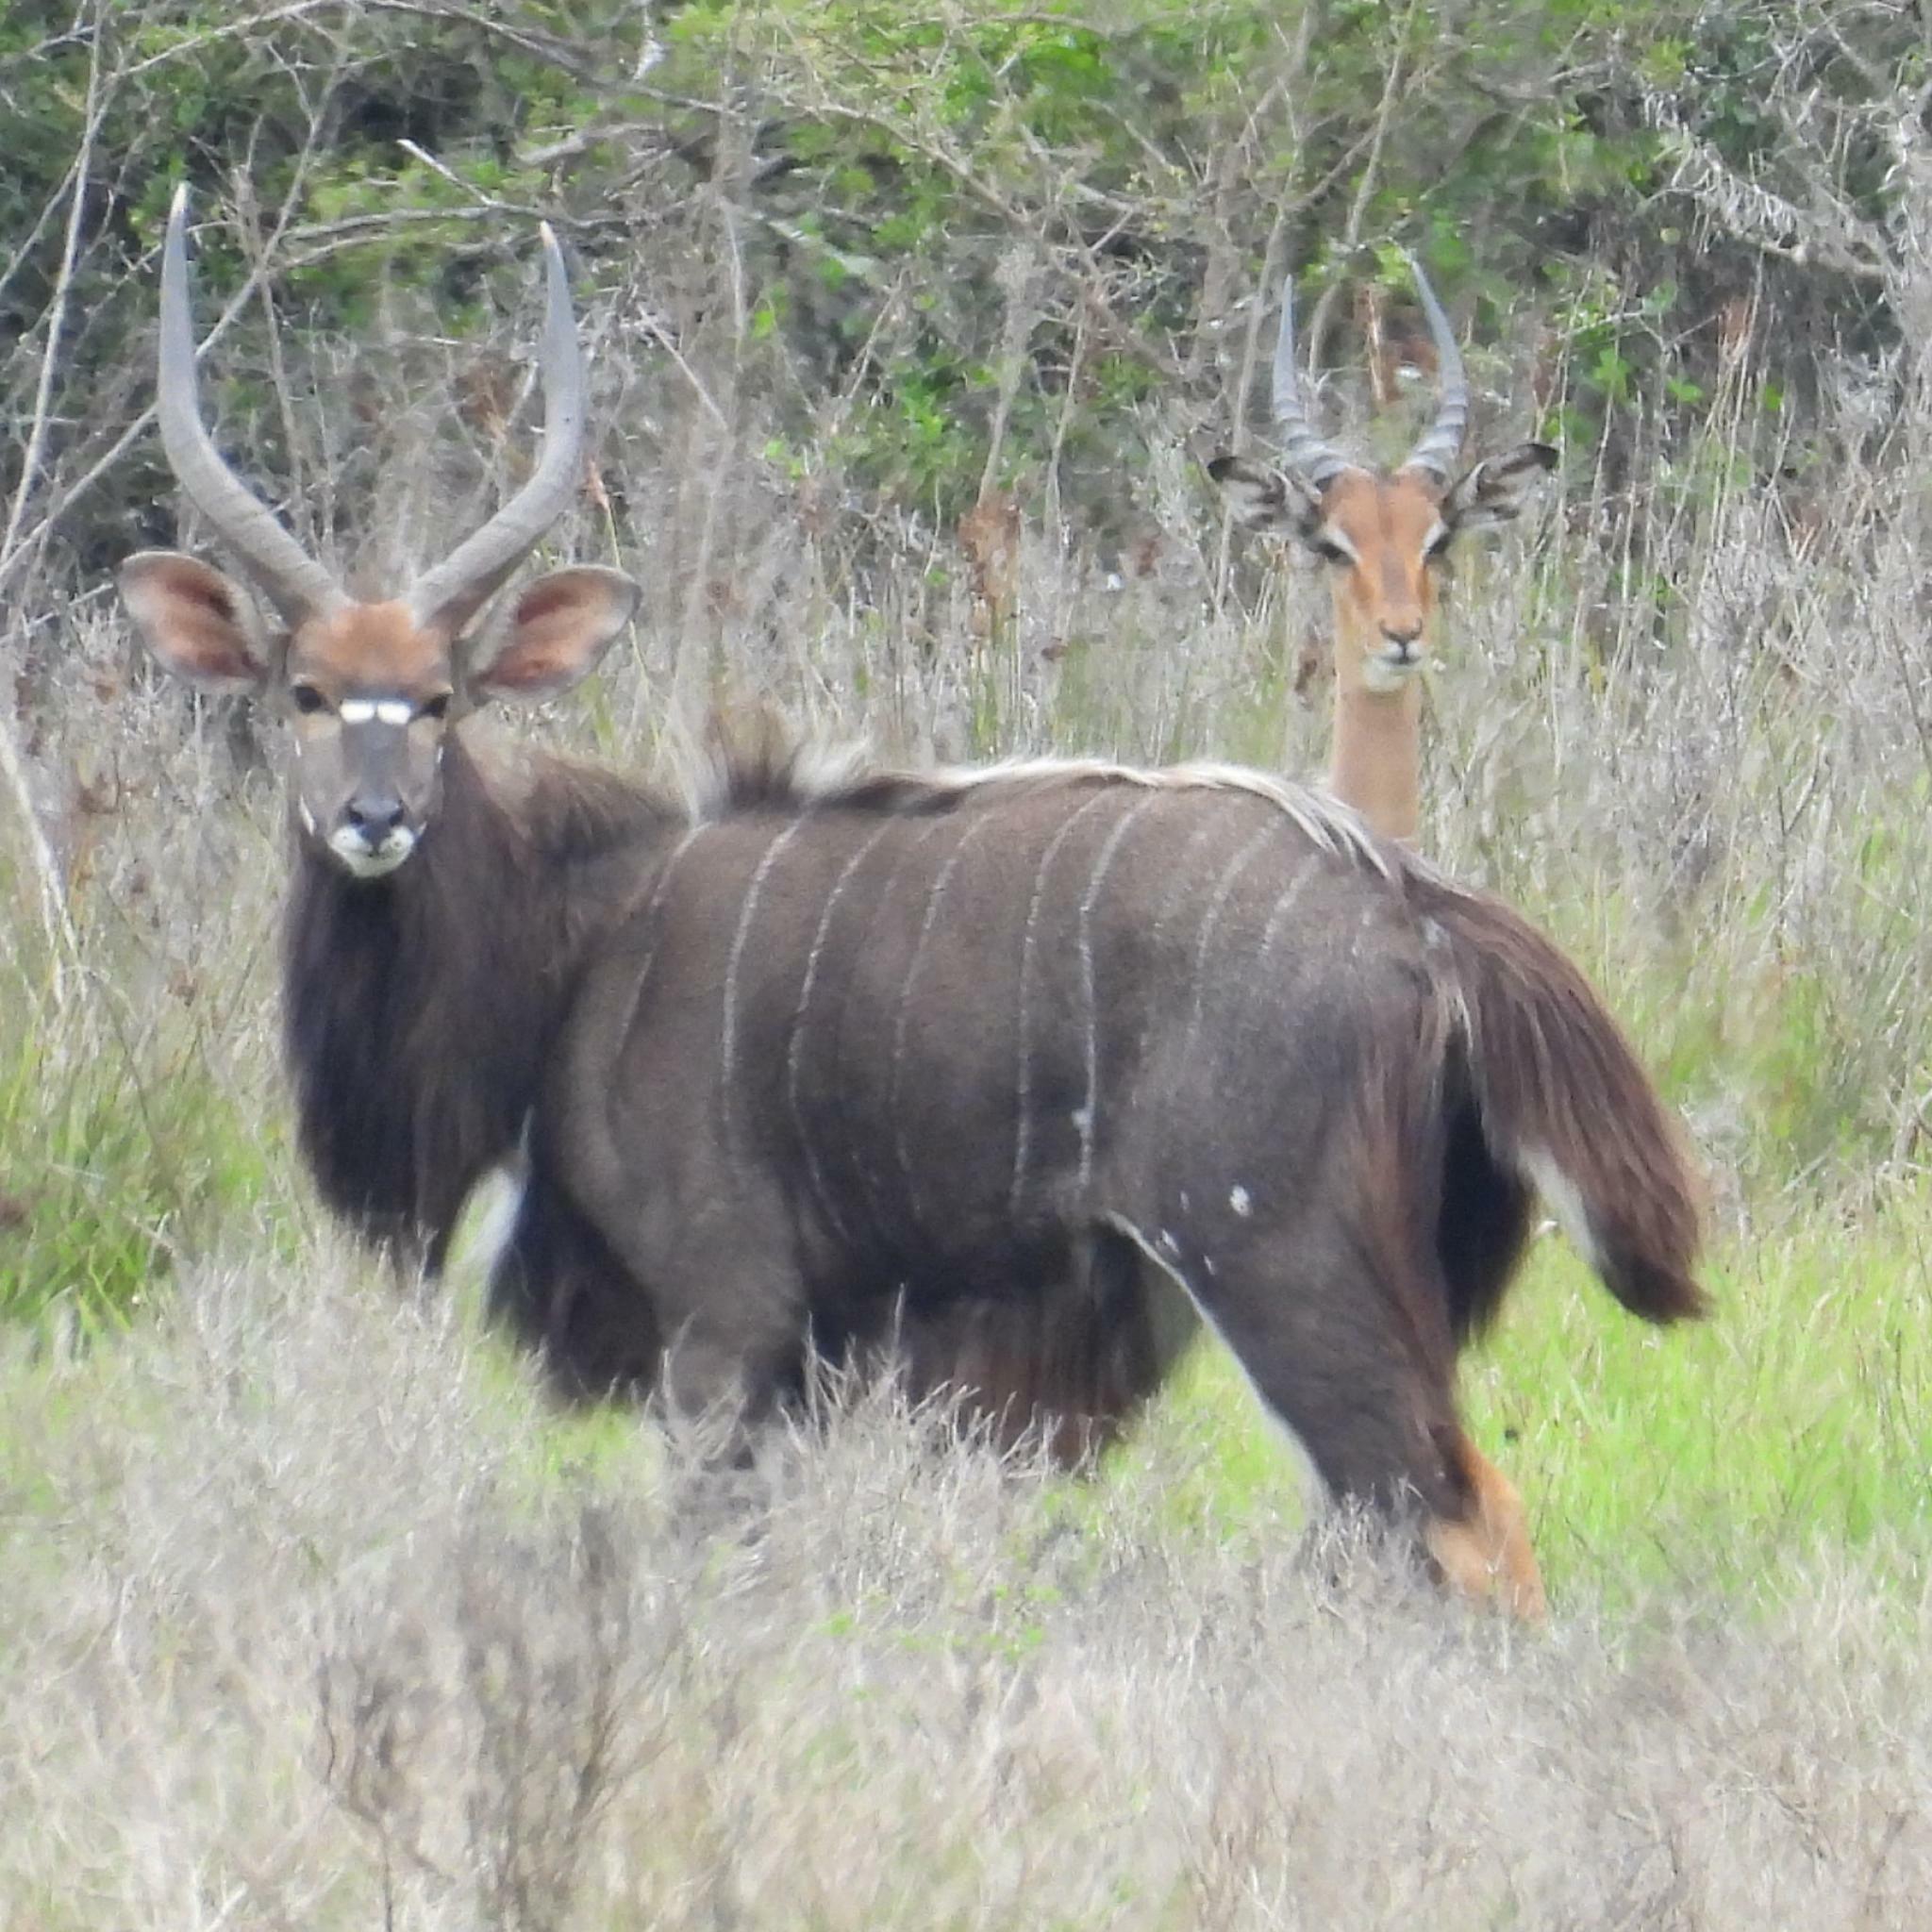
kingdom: Animalia
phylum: Chordata
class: Mammalia
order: Artiodactyla
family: Bovidae
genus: Tragelaphus
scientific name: Tragelaphus angasii
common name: Nyala
